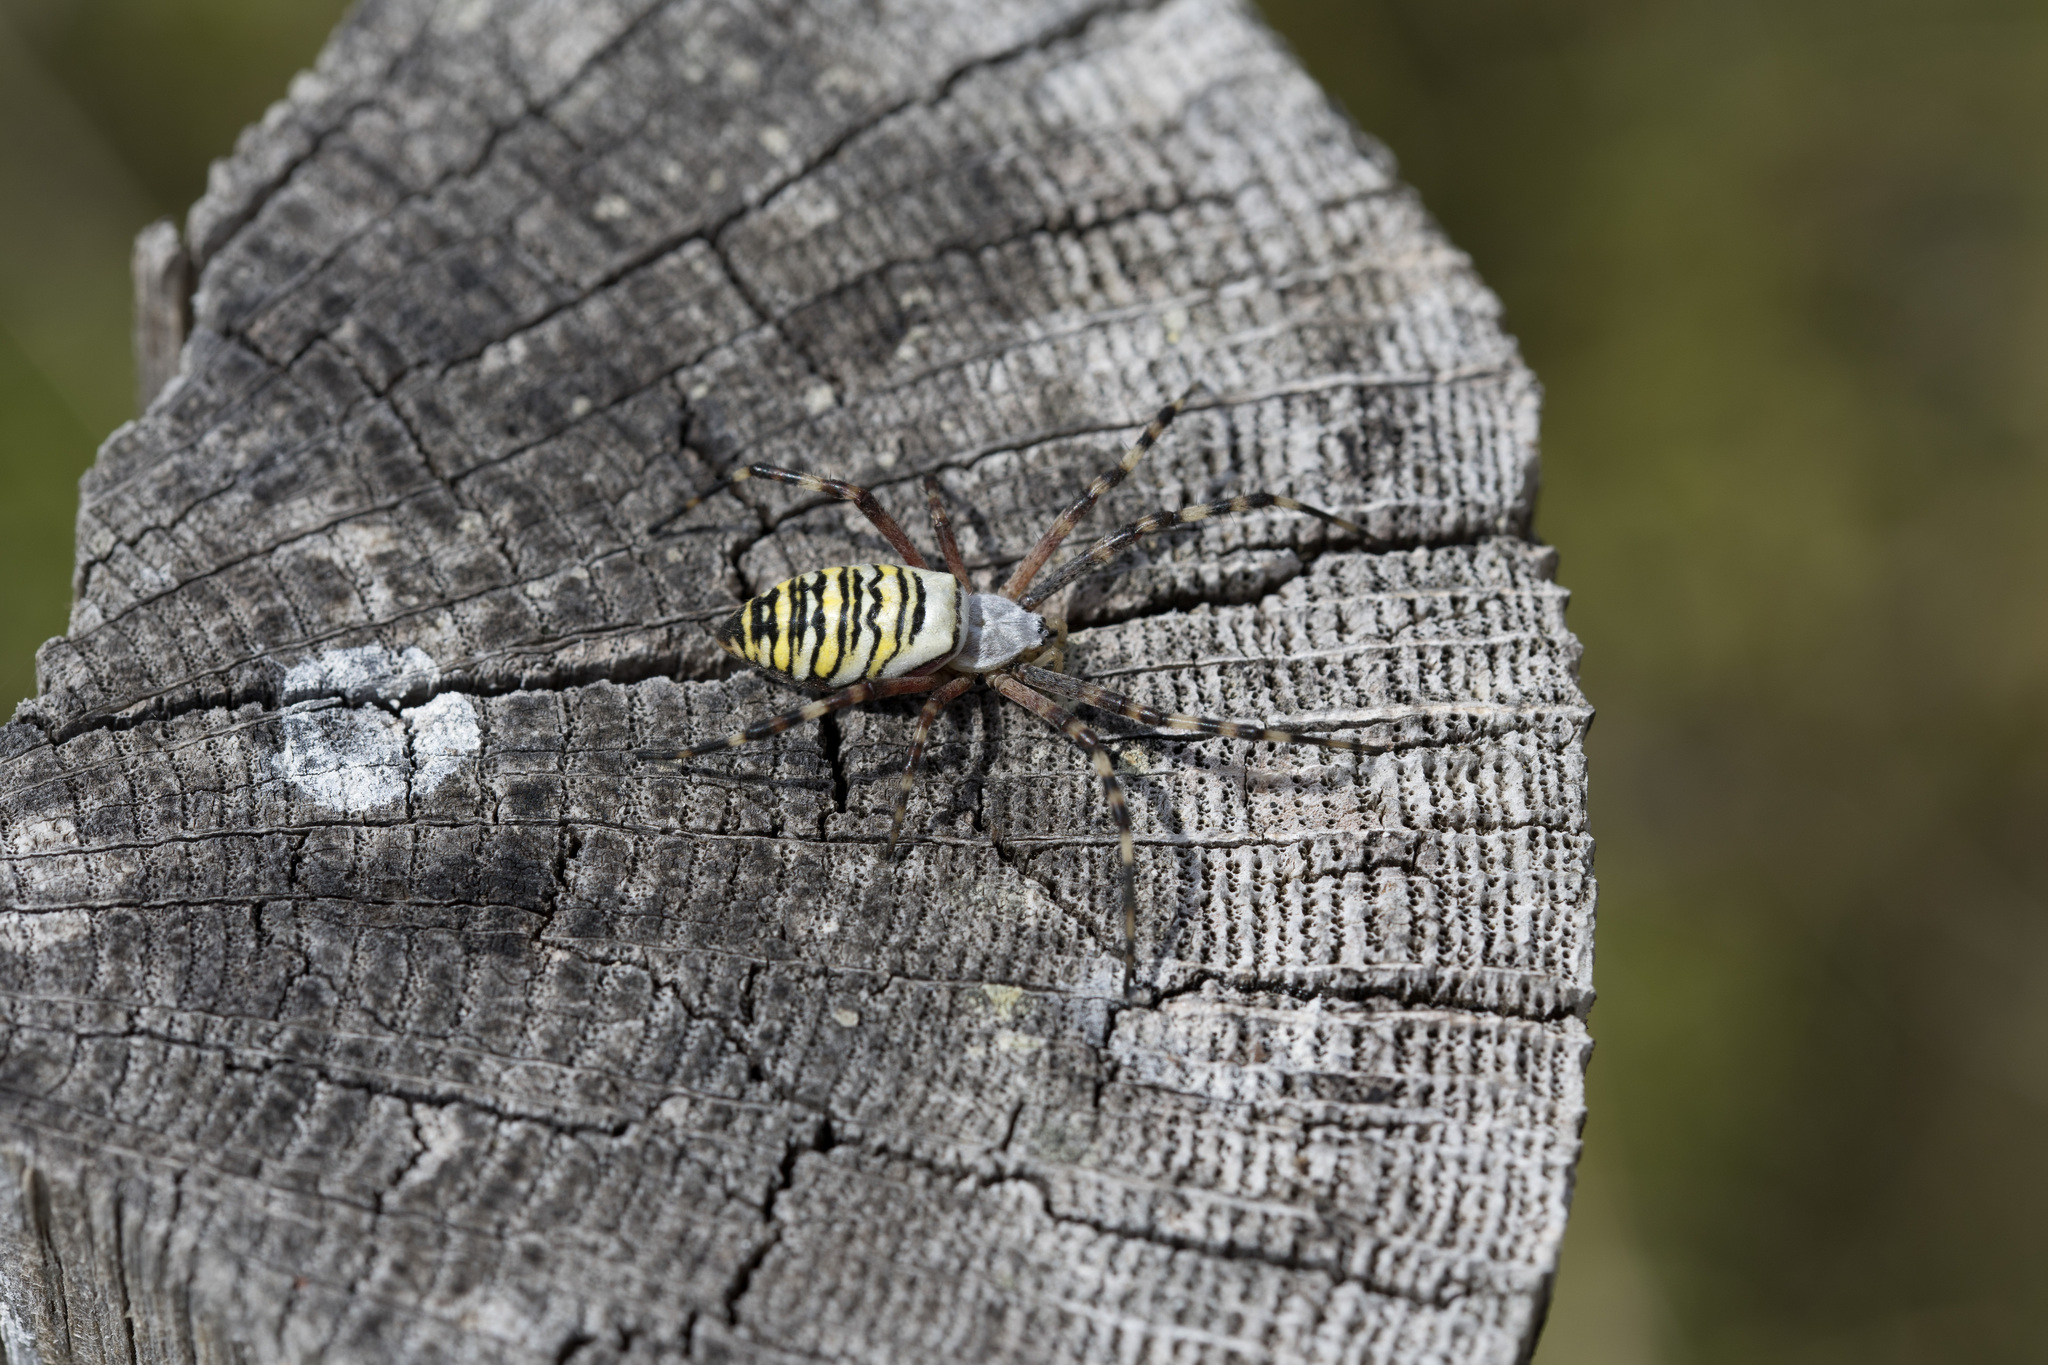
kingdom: Animalia
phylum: Arthropoda
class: Arachnida
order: Araneae
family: Araneidae
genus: Argiope
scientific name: Argiope bruennichi
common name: Wasp spider
